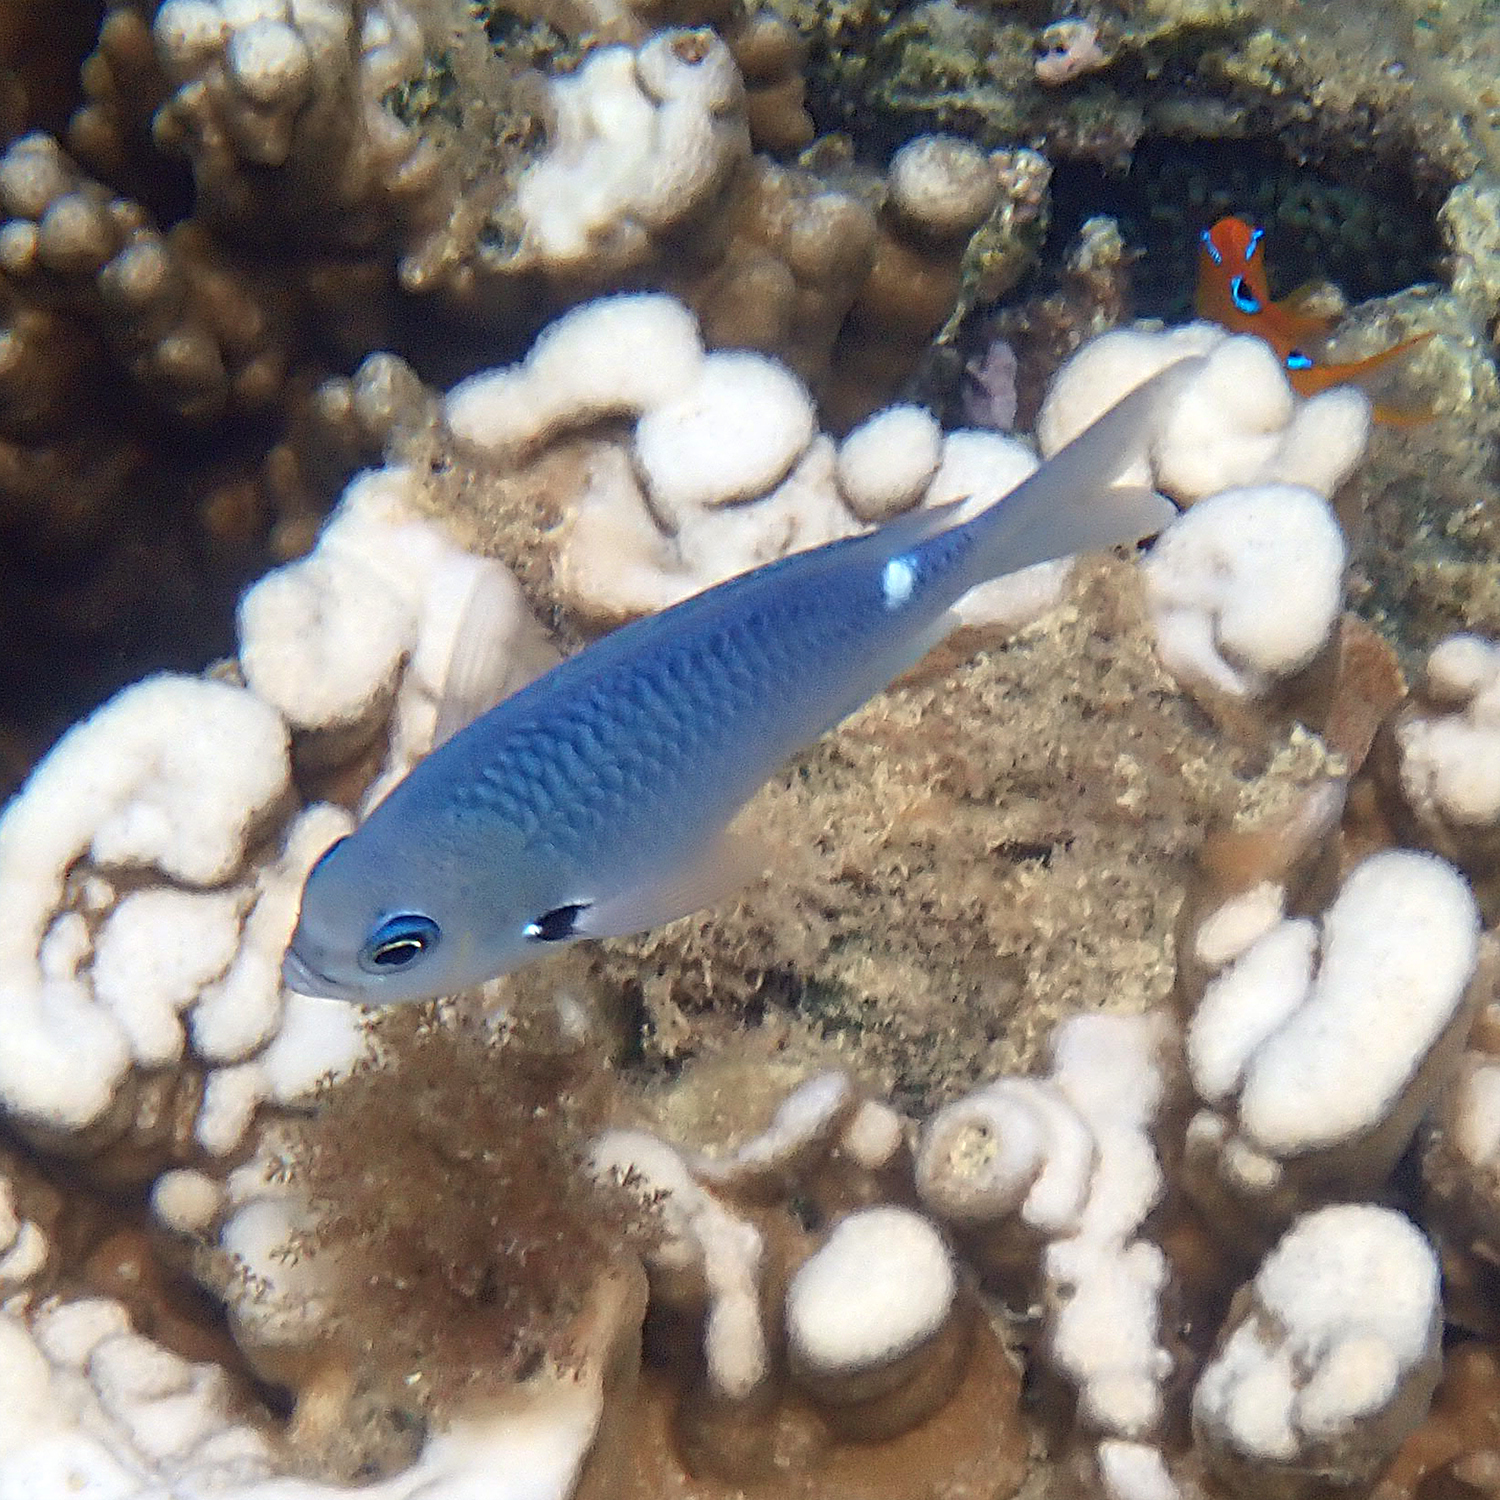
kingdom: Animalia
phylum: Chordata
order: Perciformes
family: Pomacentridae
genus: Chromis
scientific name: Chromis hypsilepis
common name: Brown puller
